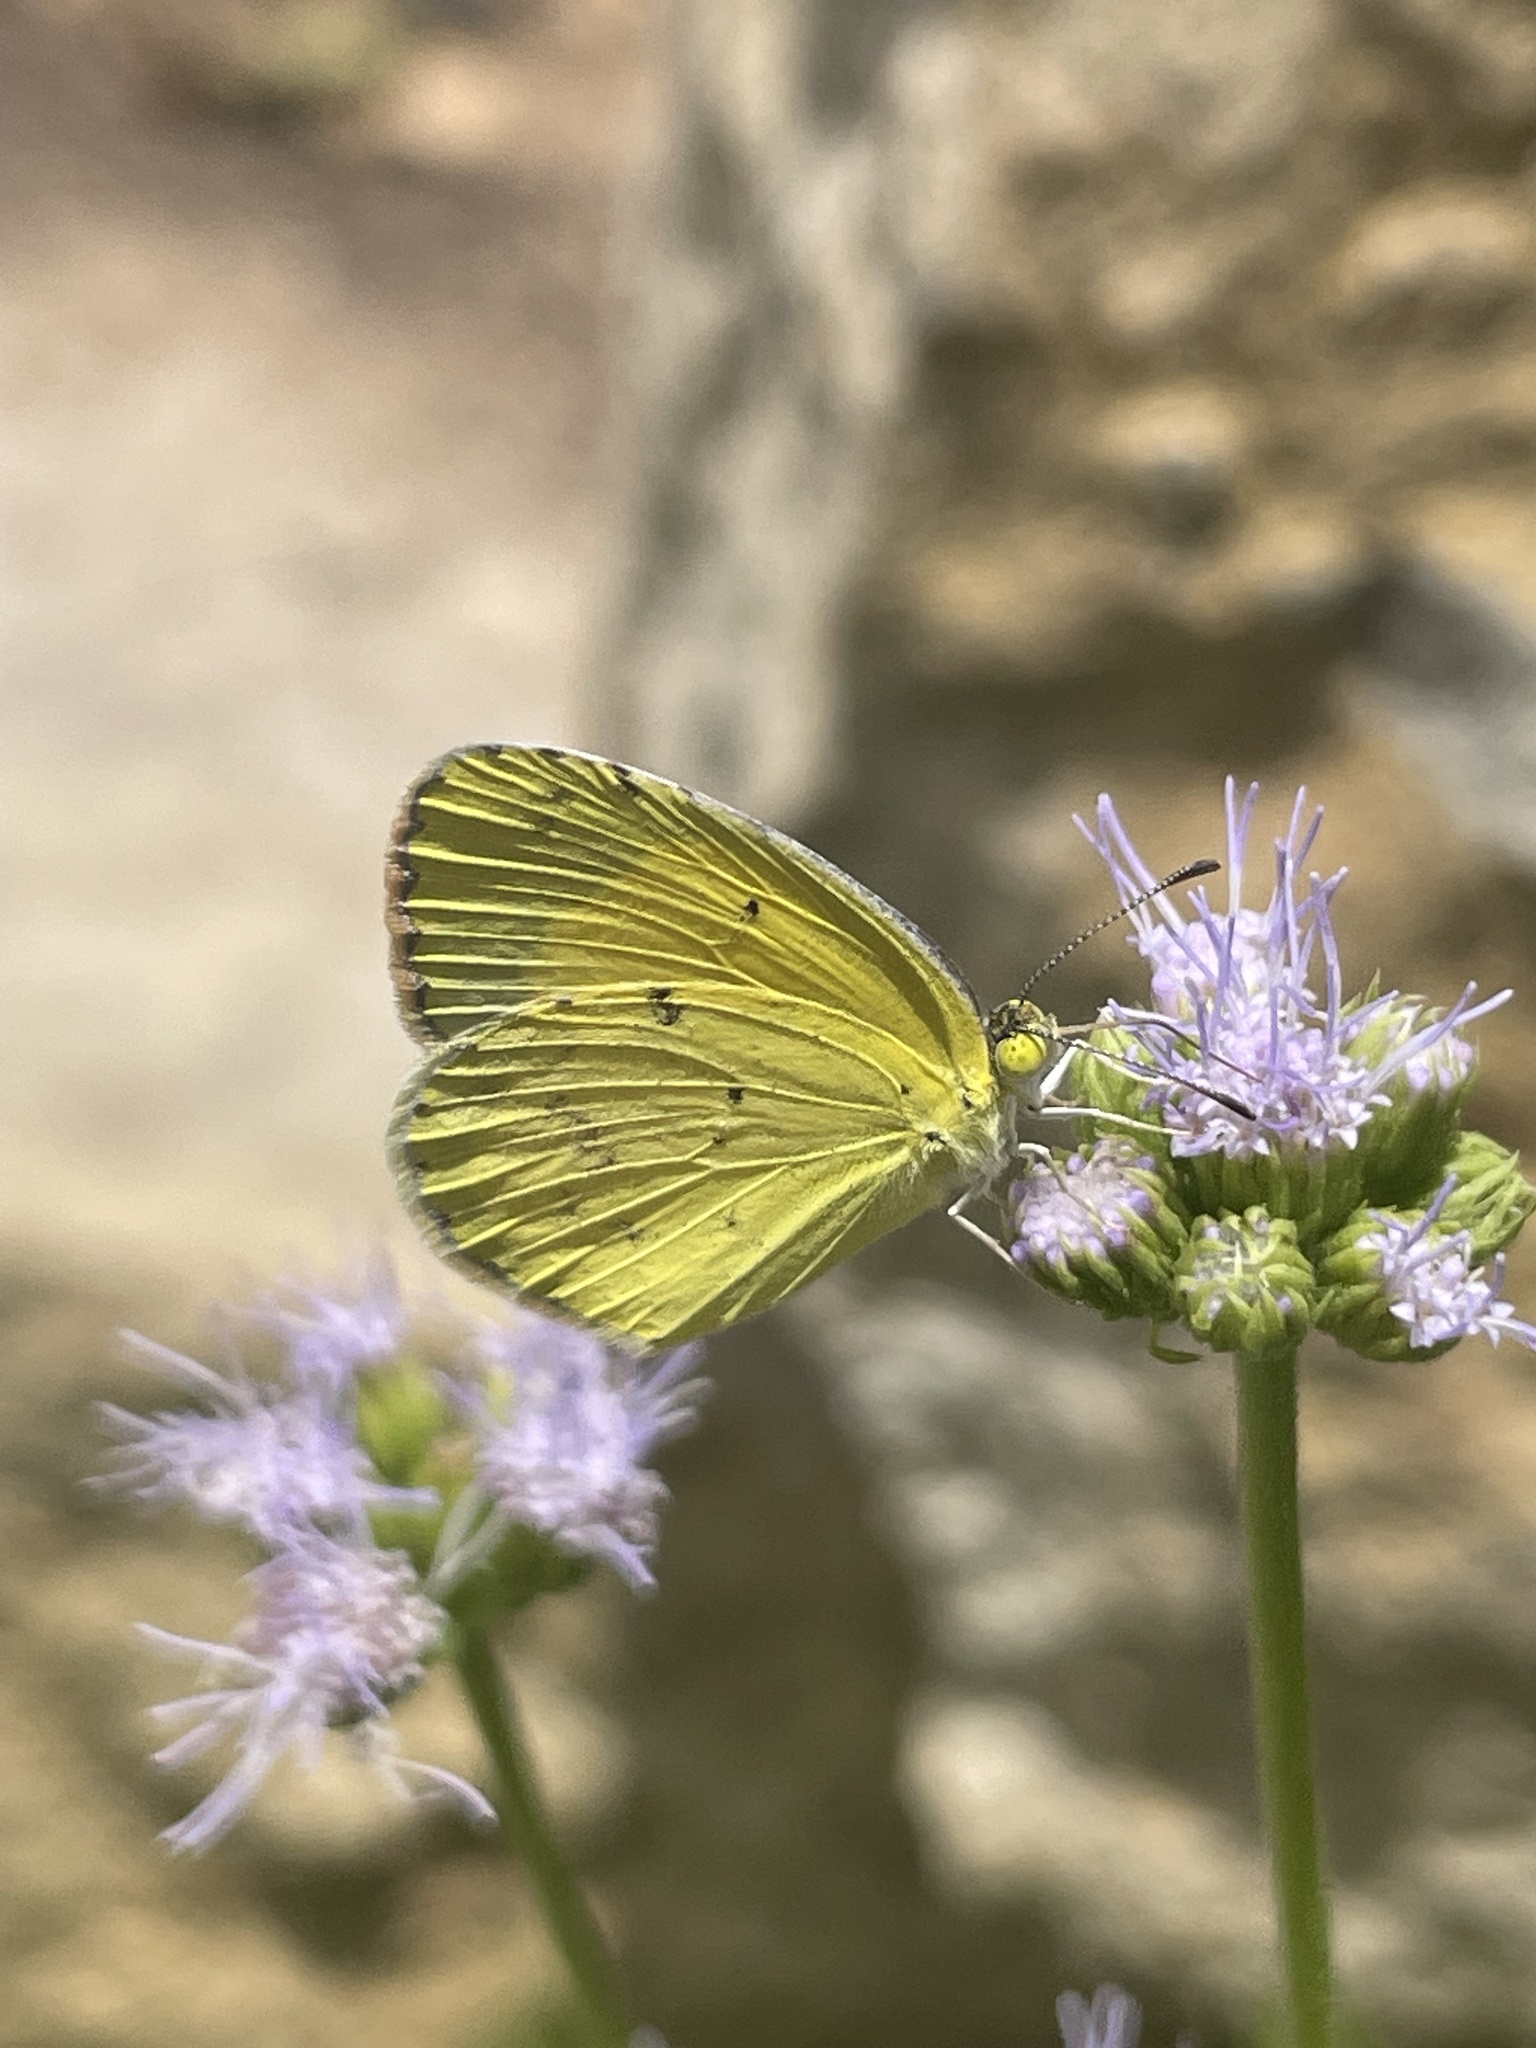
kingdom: Animalia
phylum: Arthropoda
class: Insecta
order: Lepidoptera
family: Pieridae
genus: Pyrisitia
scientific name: Pyrisitia lisa
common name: Little yellow
